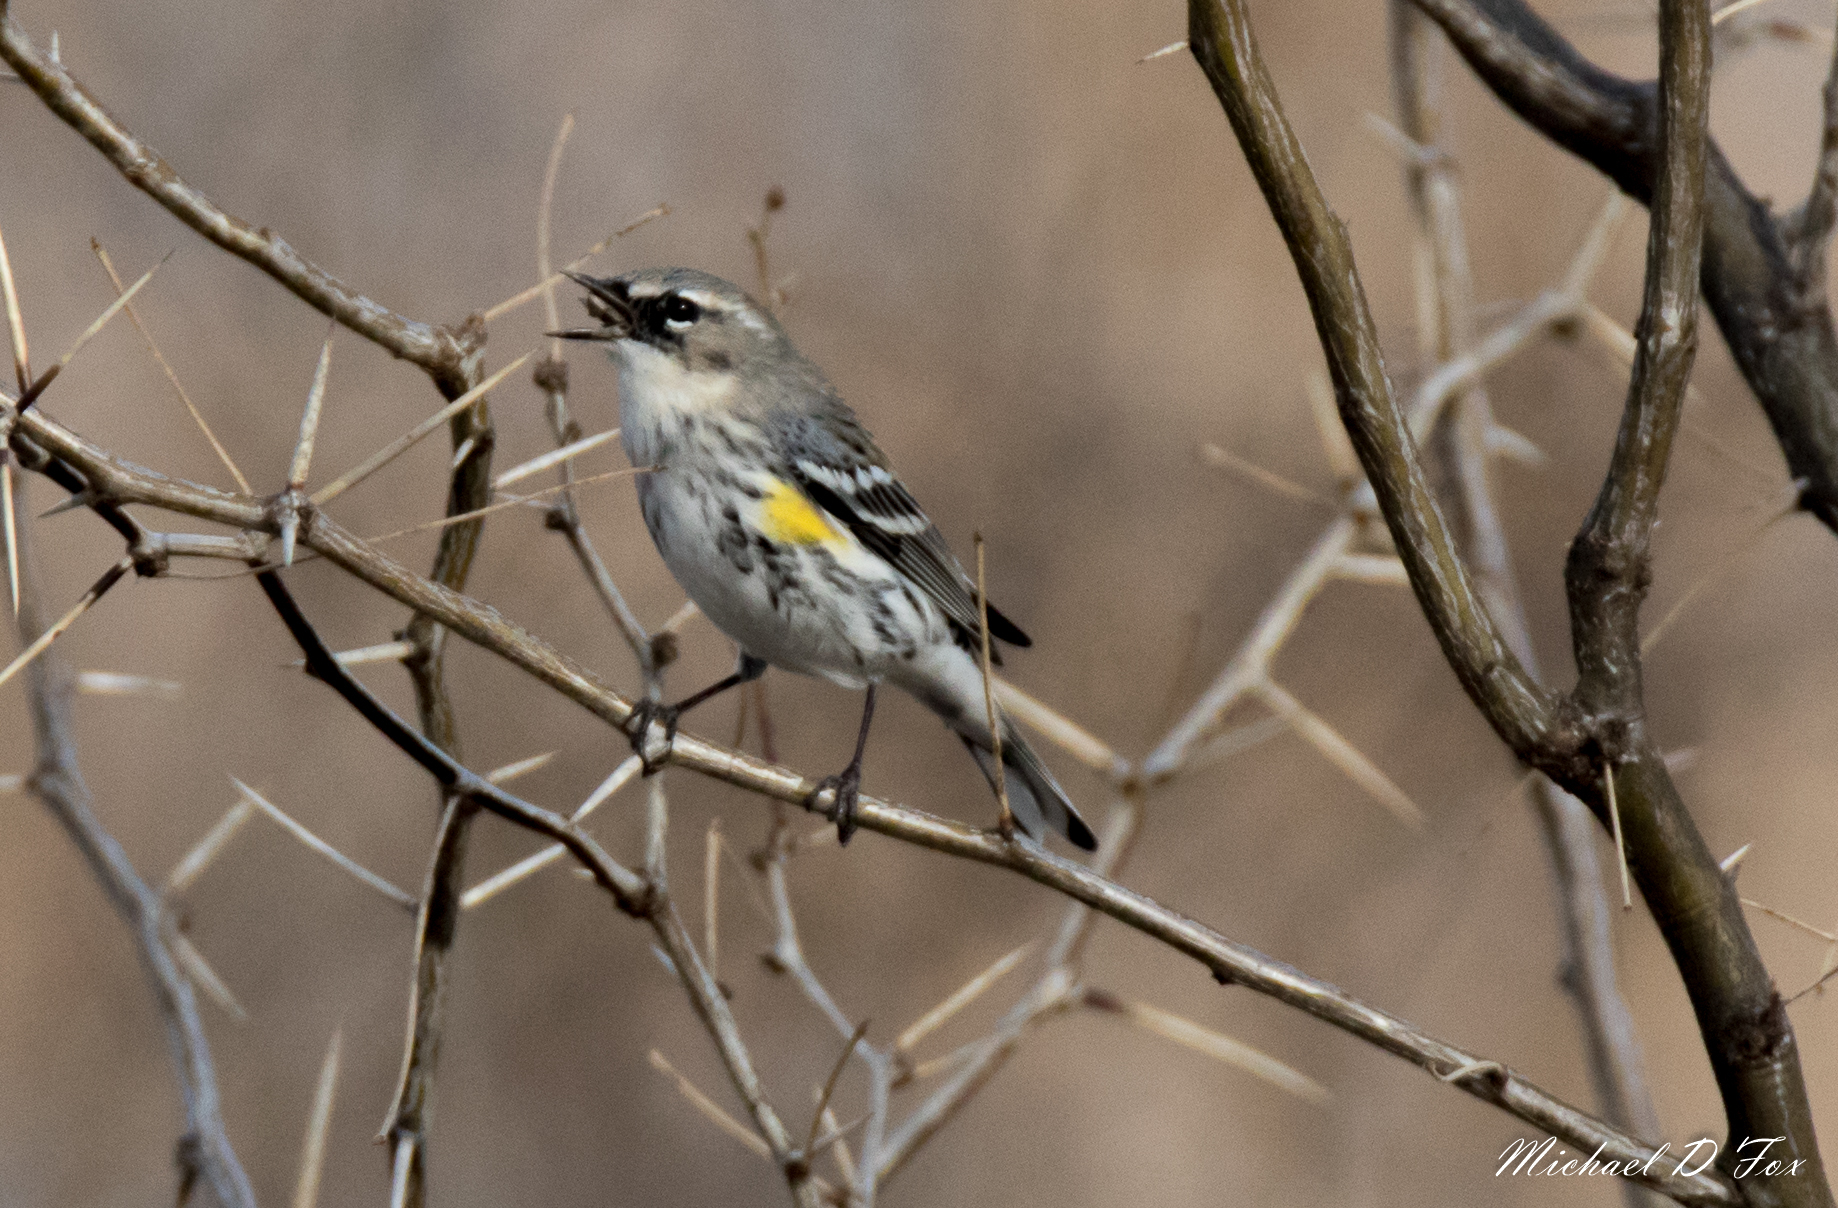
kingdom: Animalia
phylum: Chordata
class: Aves
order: Passeriformes
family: Parulidae
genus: Setophaga
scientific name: Setophaga coronata
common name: Myrtle warbler
